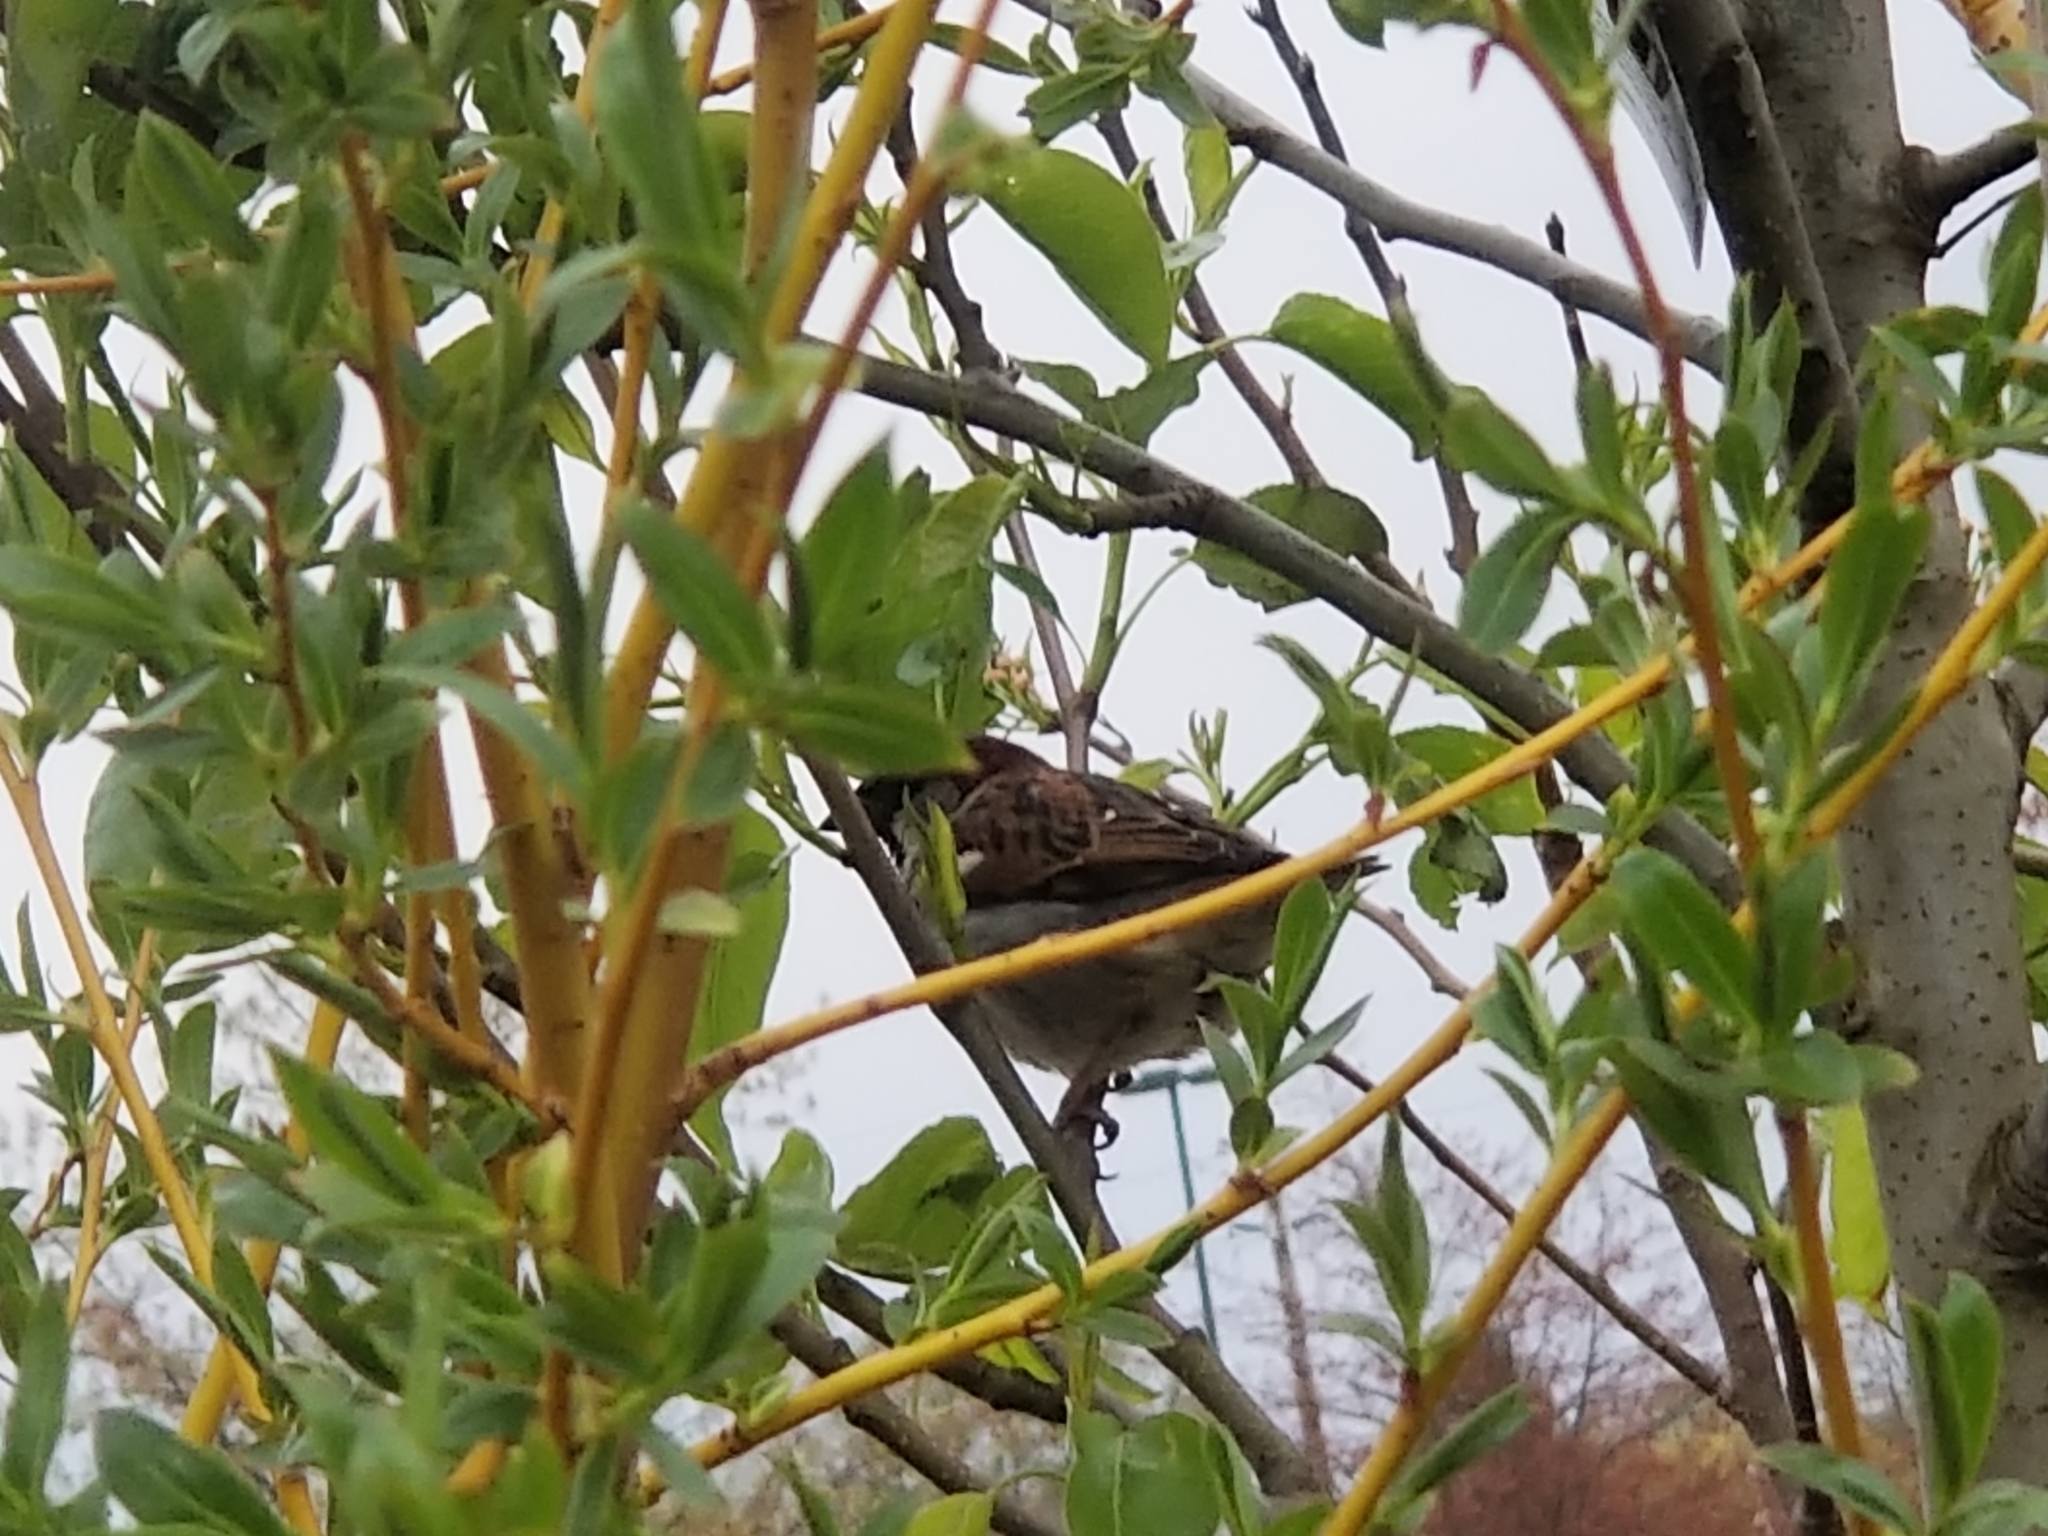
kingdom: Animalia
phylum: Chordata
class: Aves
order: Passeriformes
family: Passeridae
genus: Passer
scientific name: Passer domesticus
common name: House sparrow
